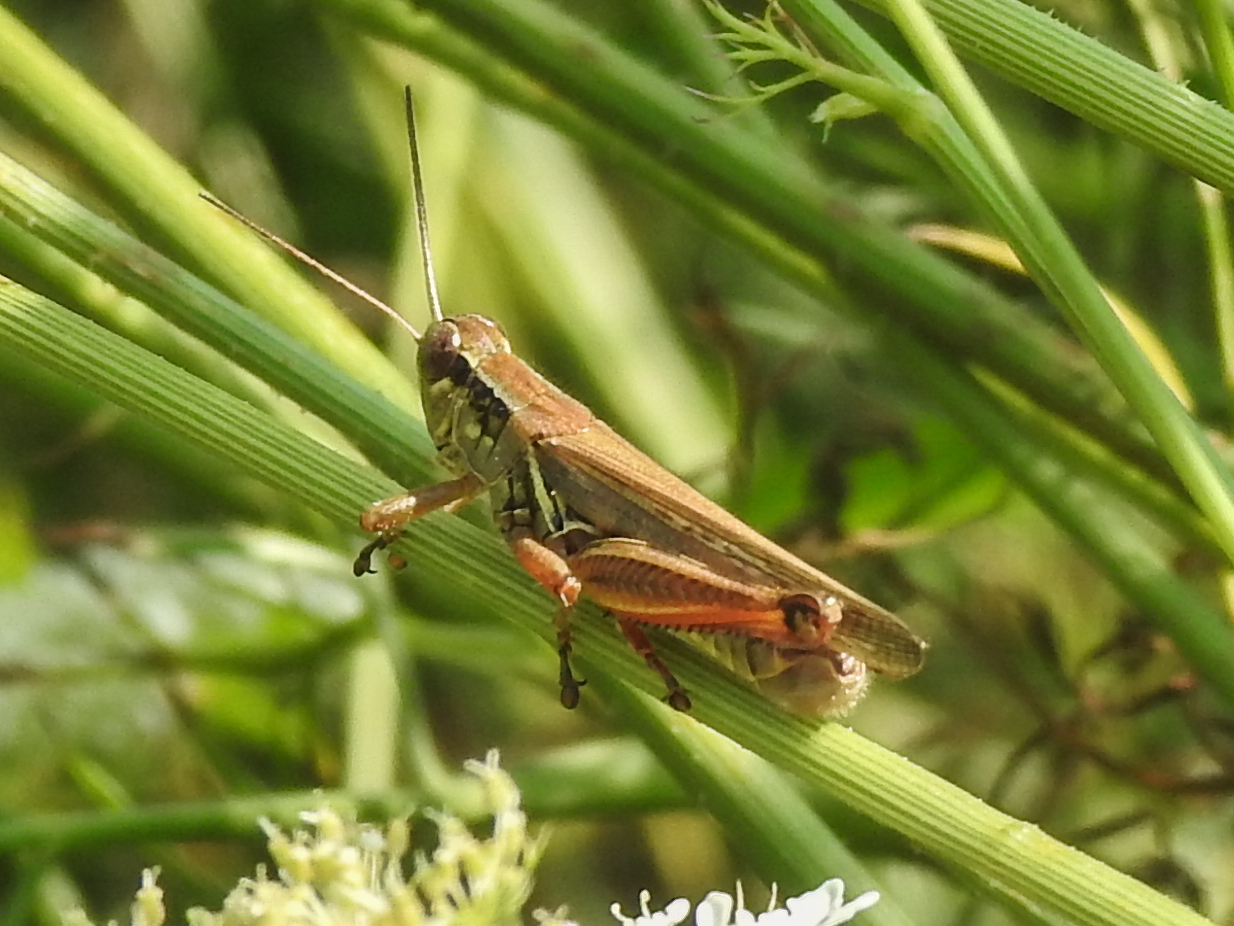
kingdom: Animalia
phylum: Arthropoda
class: Insecta
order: Orthoptera
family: Acrididae
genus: Melanoplus
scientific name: Melanoplus femurrubrum
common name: Red-legged grasshopper
